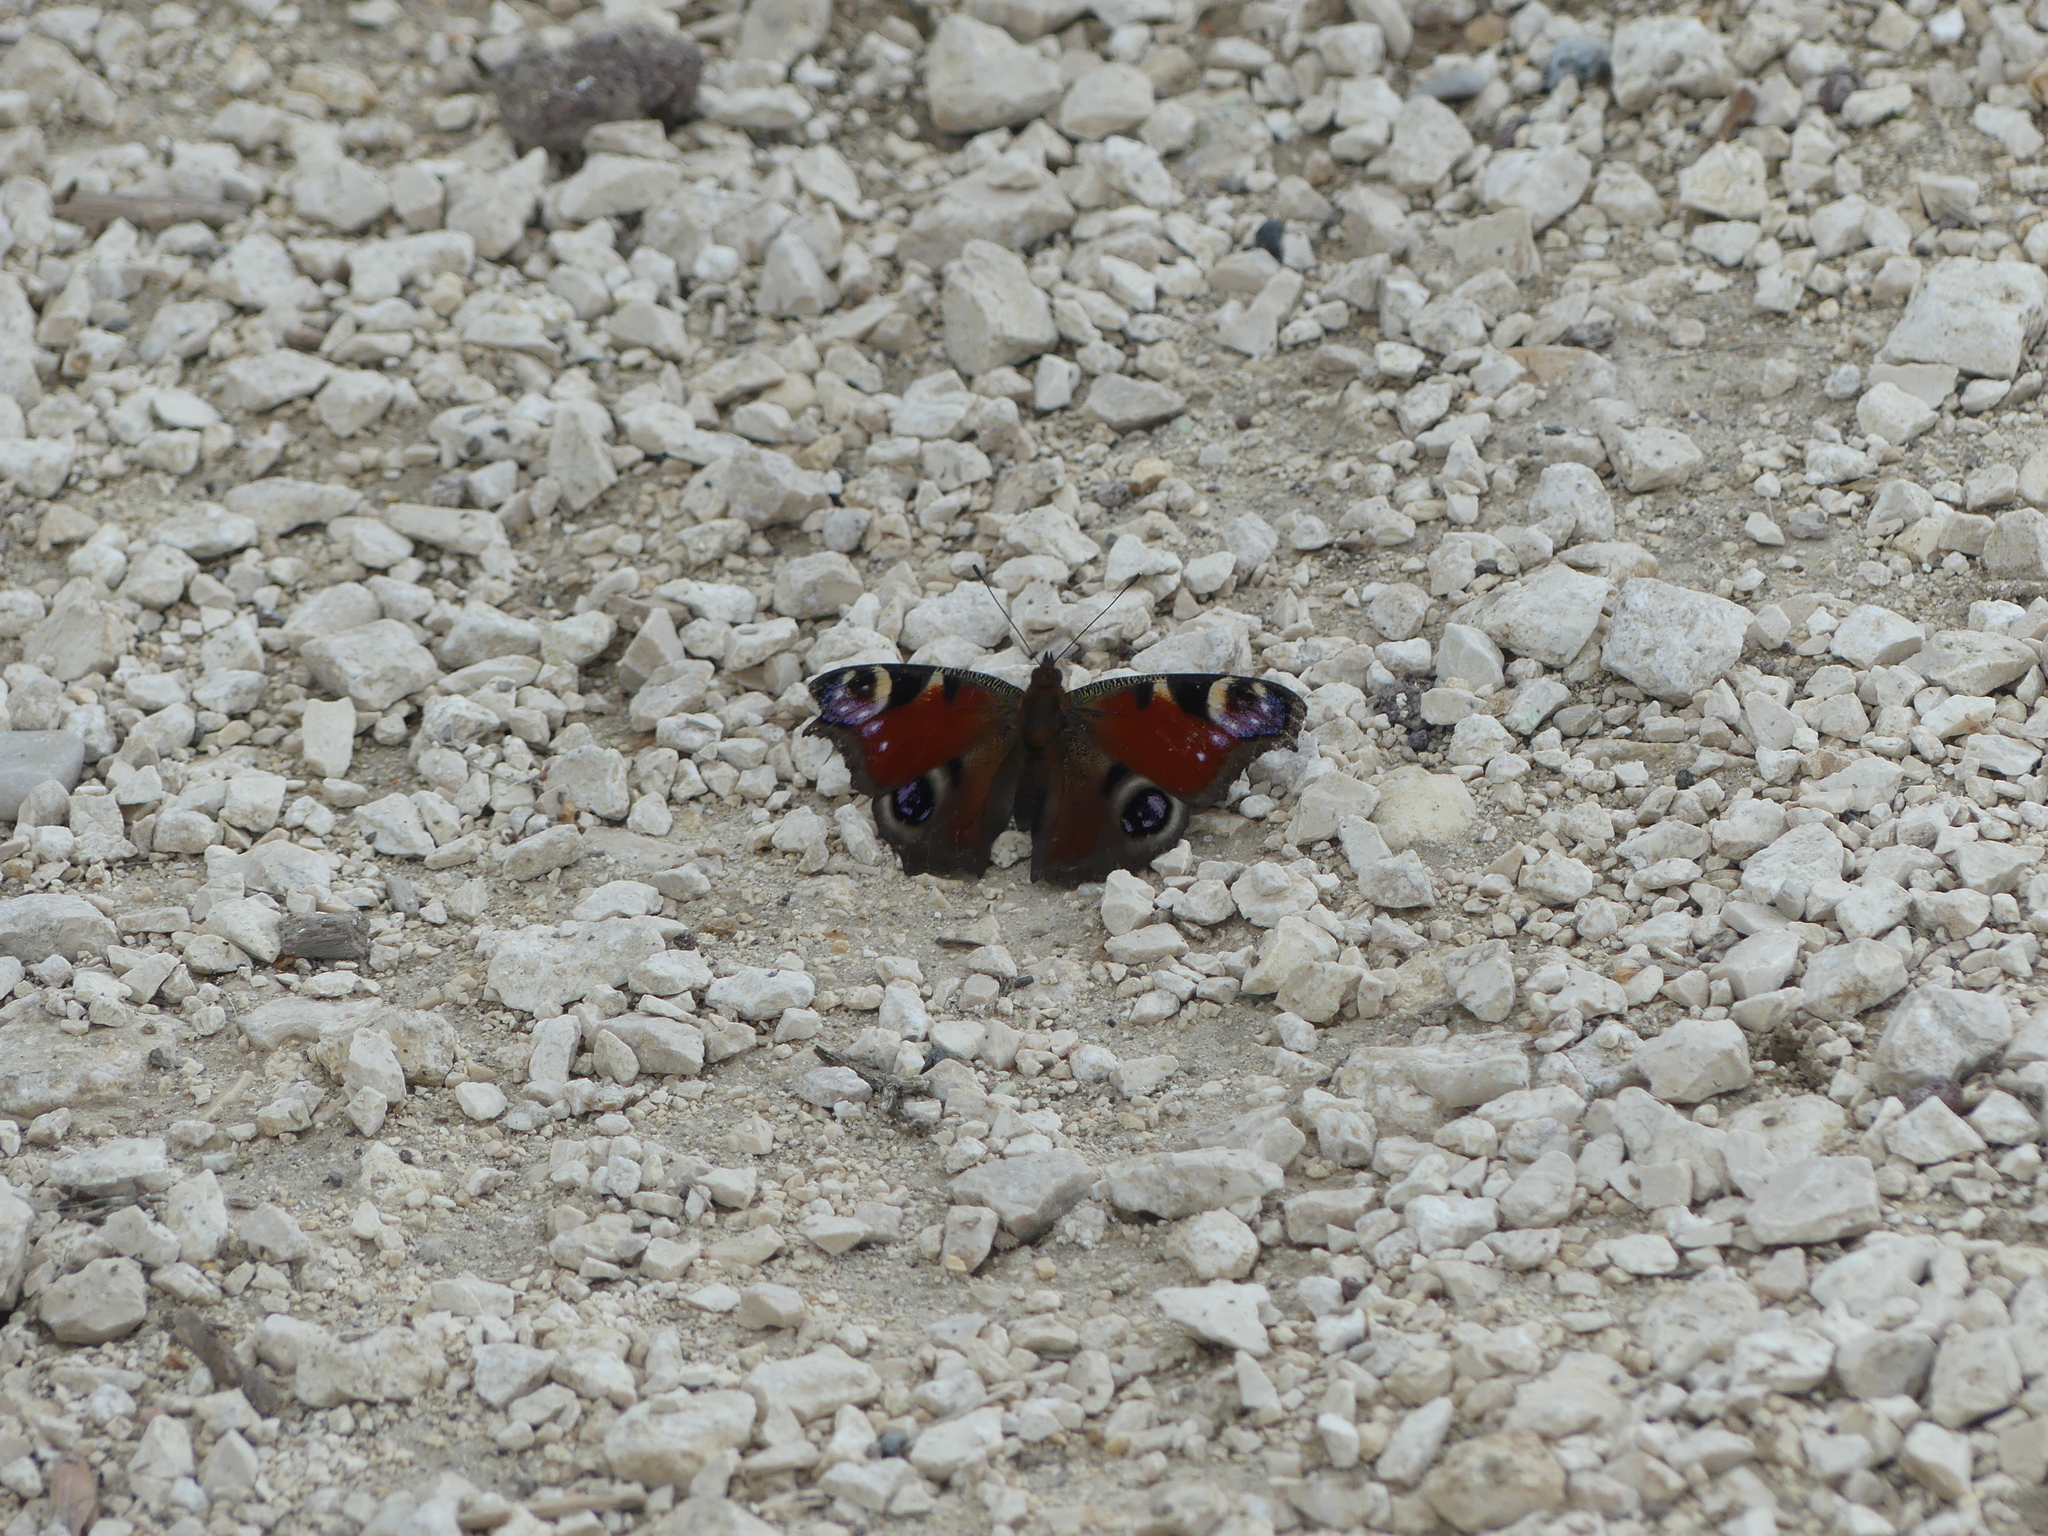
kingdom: Animalia
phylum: Arthropoda
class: Insecta
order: Lepidoptera
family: Nymphalidae
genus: Aglais
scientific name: Aglais io
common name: Peacock
